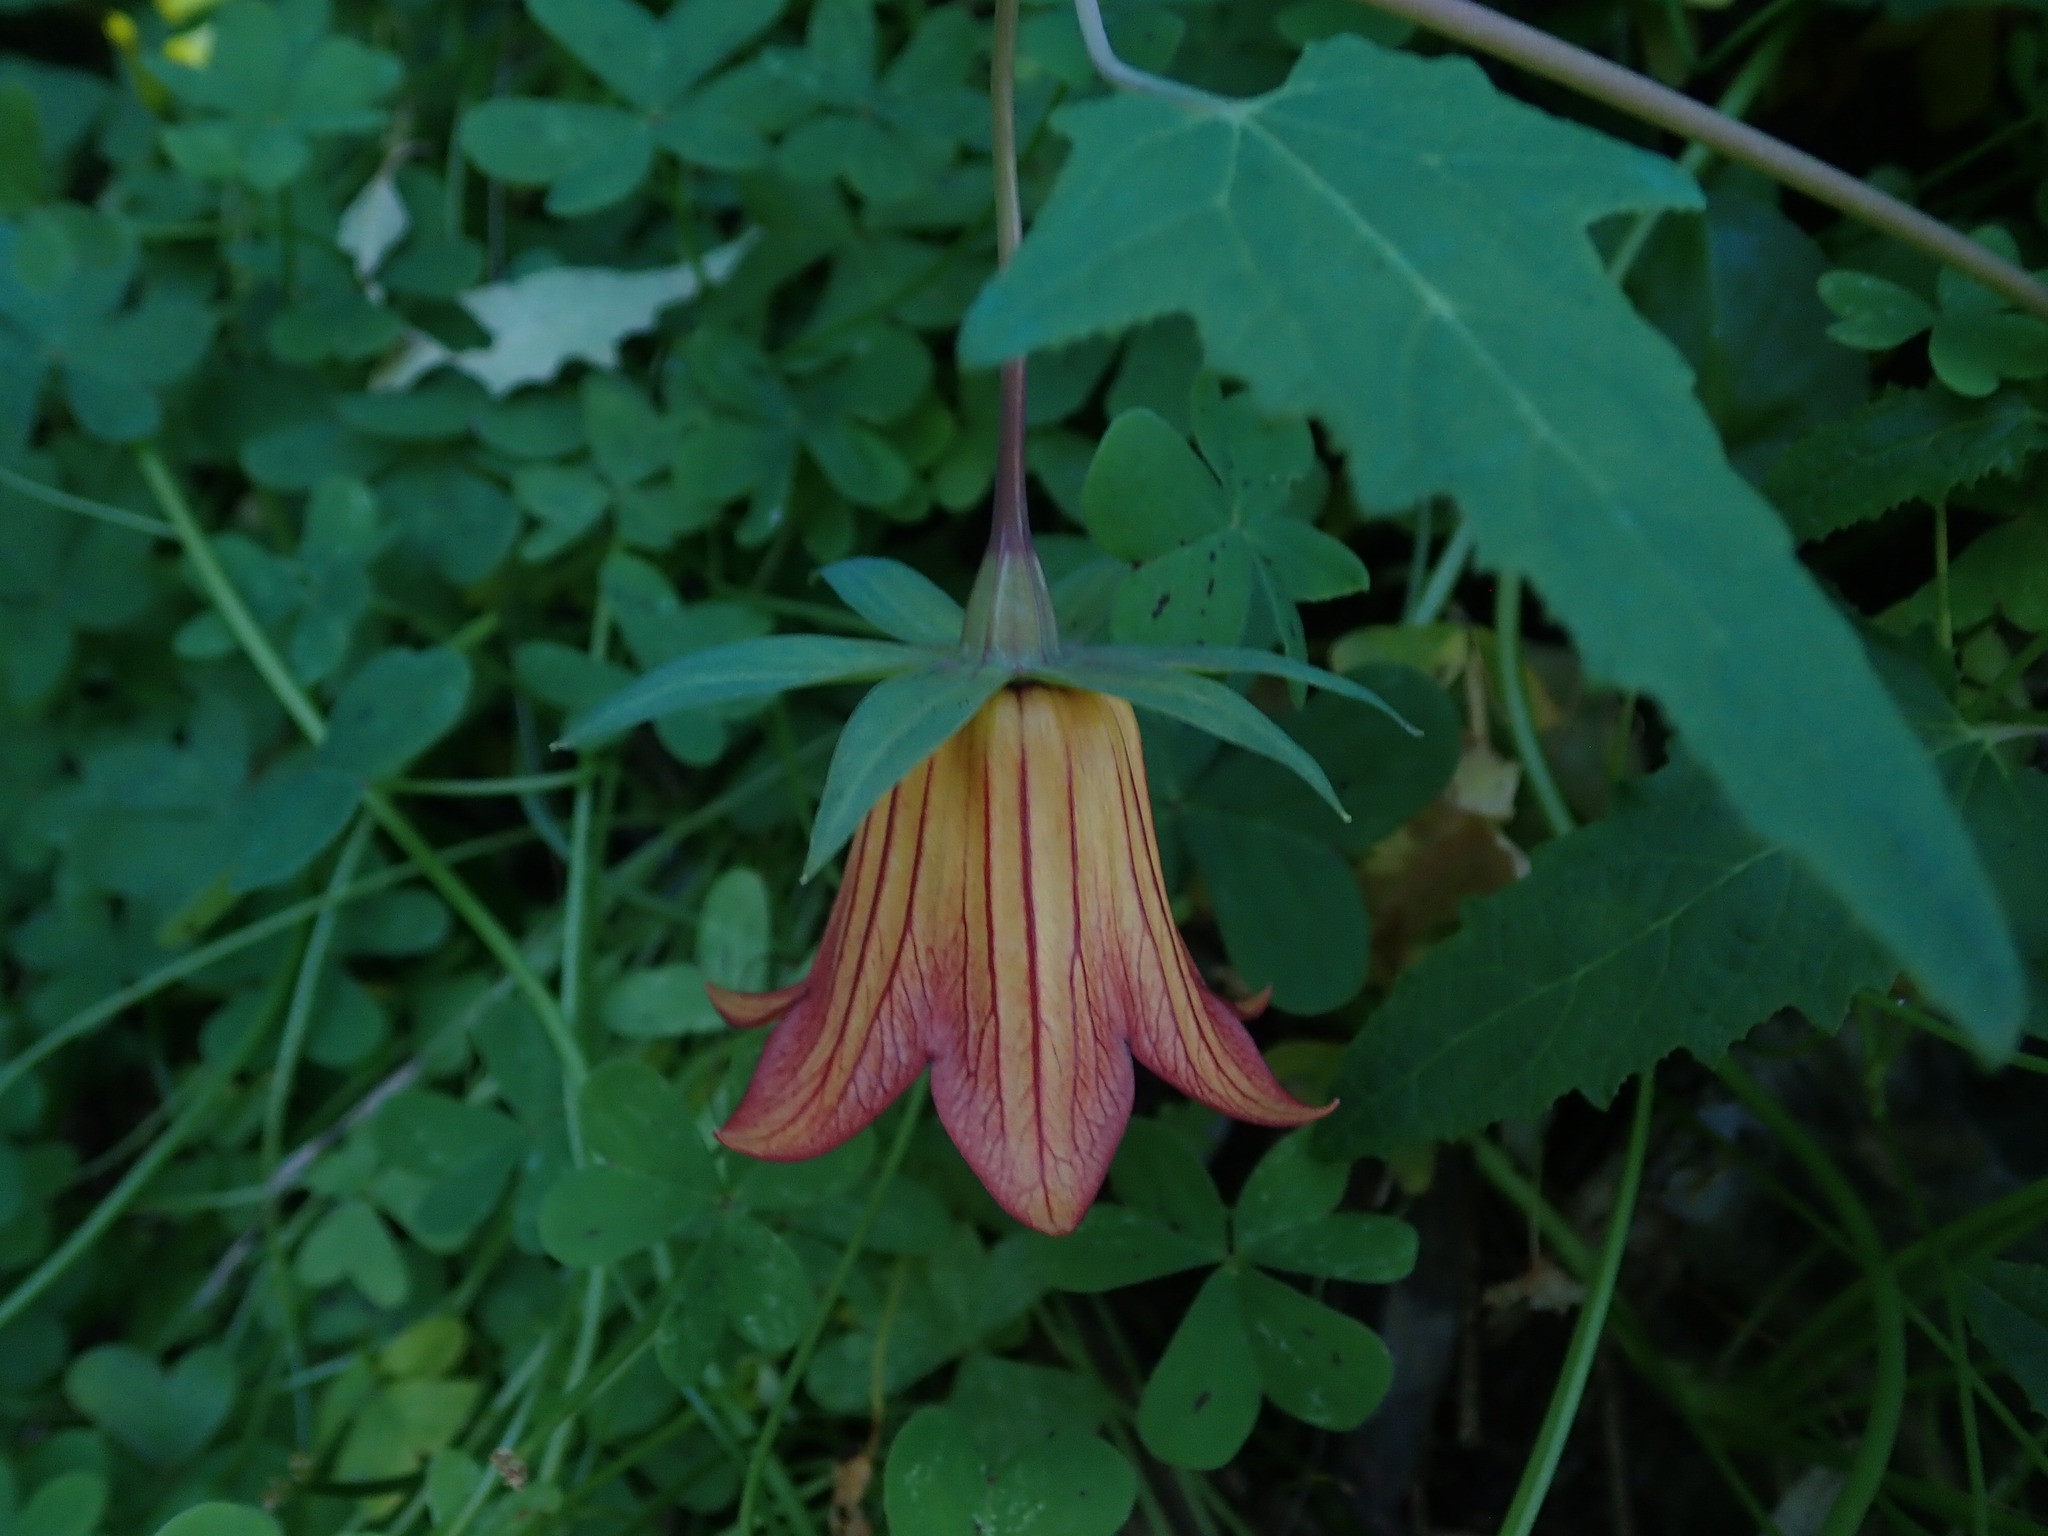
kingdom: Plantae
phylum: Tracheophyta
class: Magnoliopsida
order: Asterales
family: Campanulaceae
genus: Canarina
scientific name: Canarina canariensis
